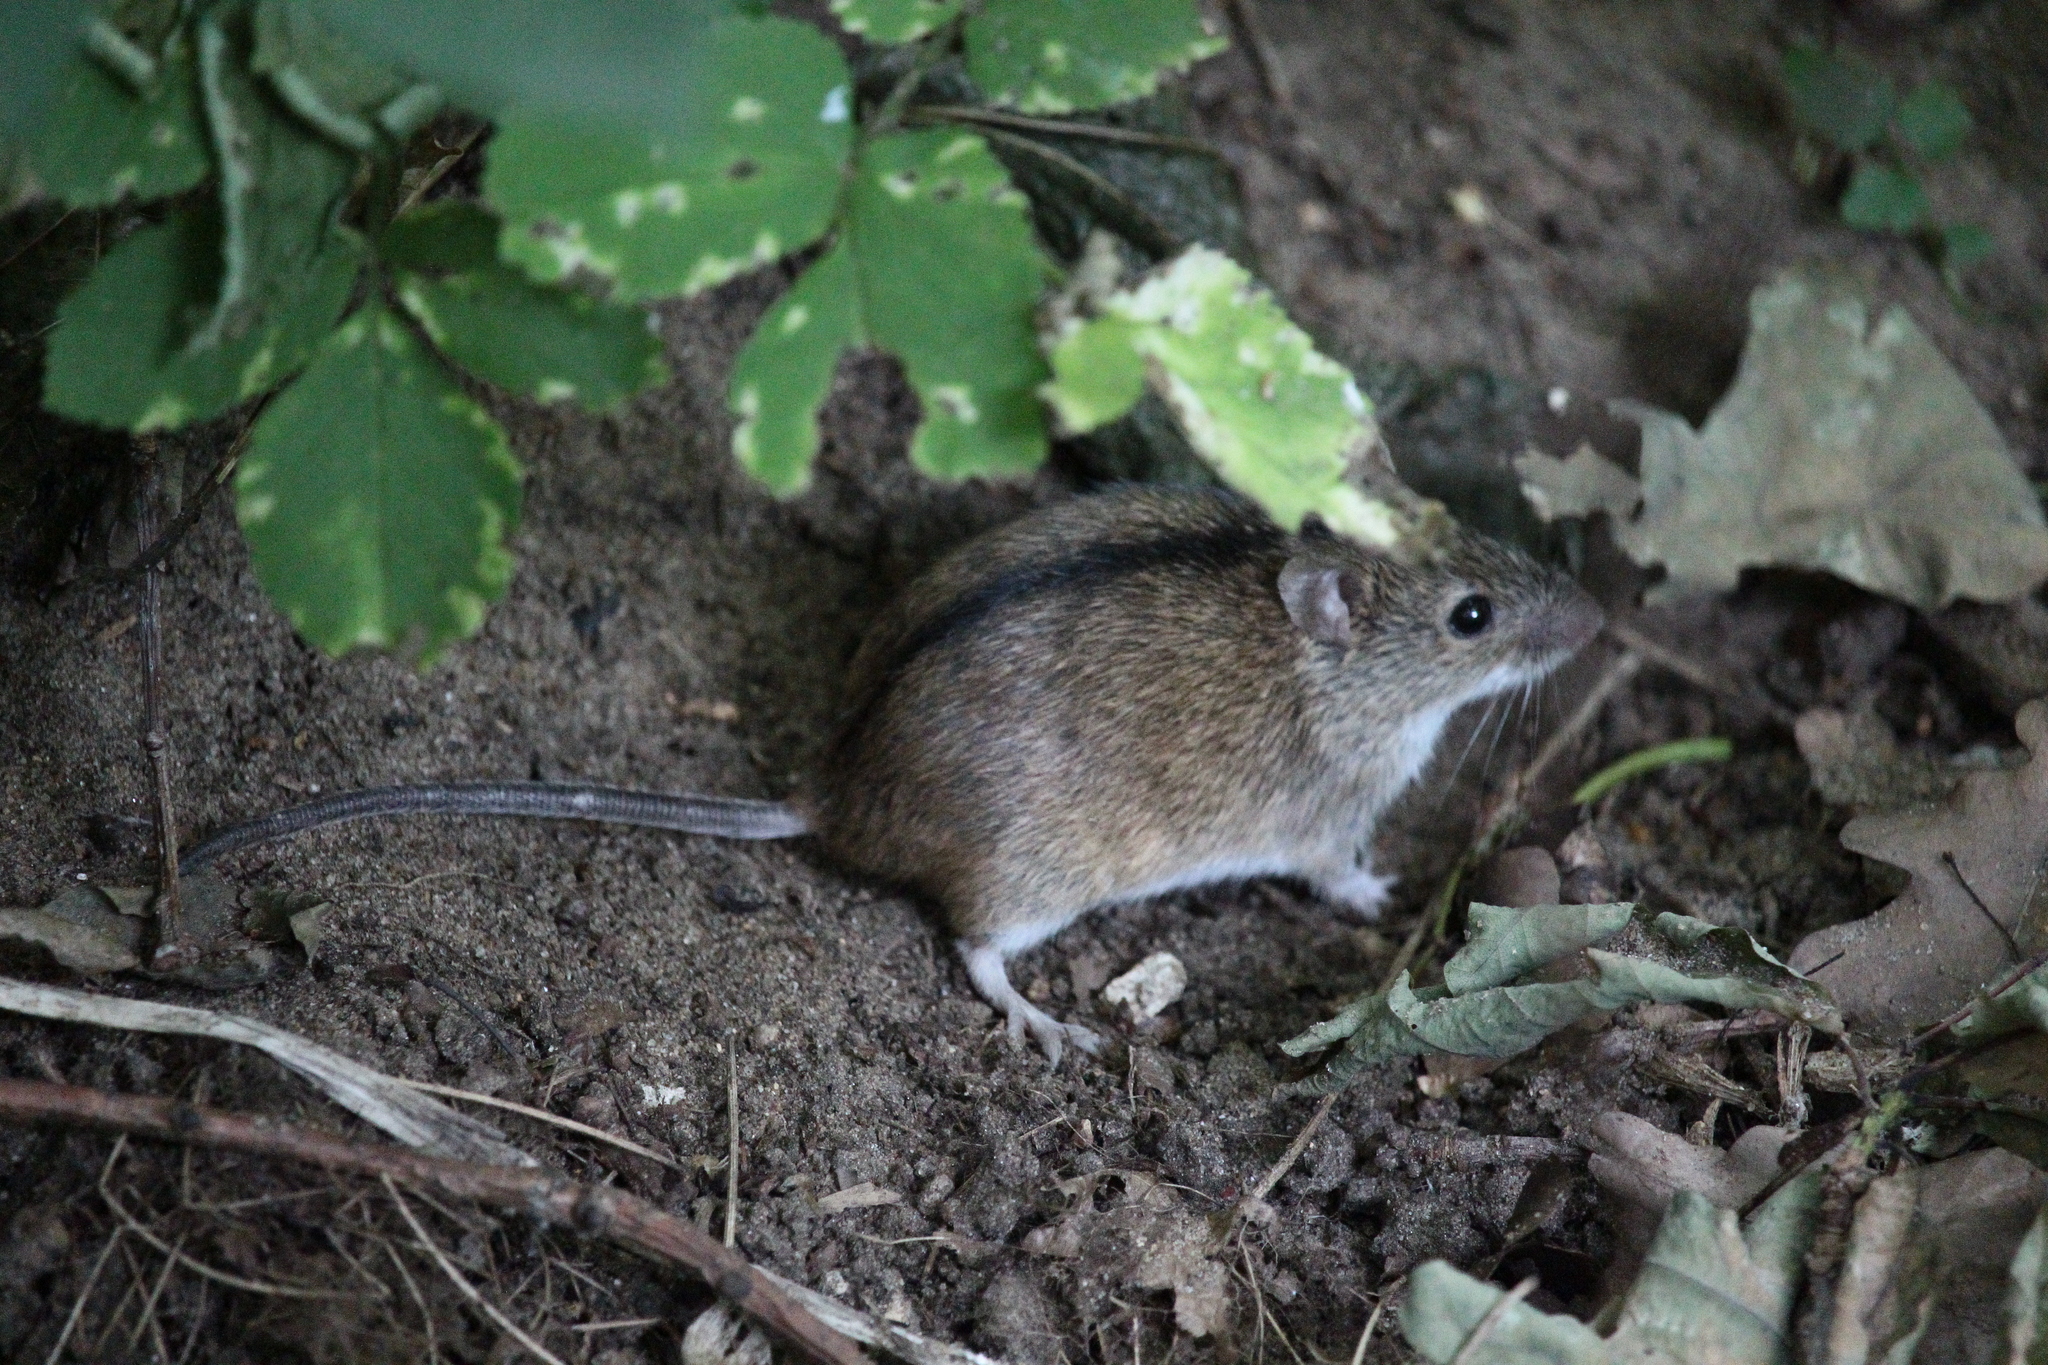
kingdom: Animalia
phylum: Chordata
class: Mammalia
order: Rodentia
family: Muridae
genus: Apodemus
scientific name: Apodemus agrarius
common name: Striped field mouse
